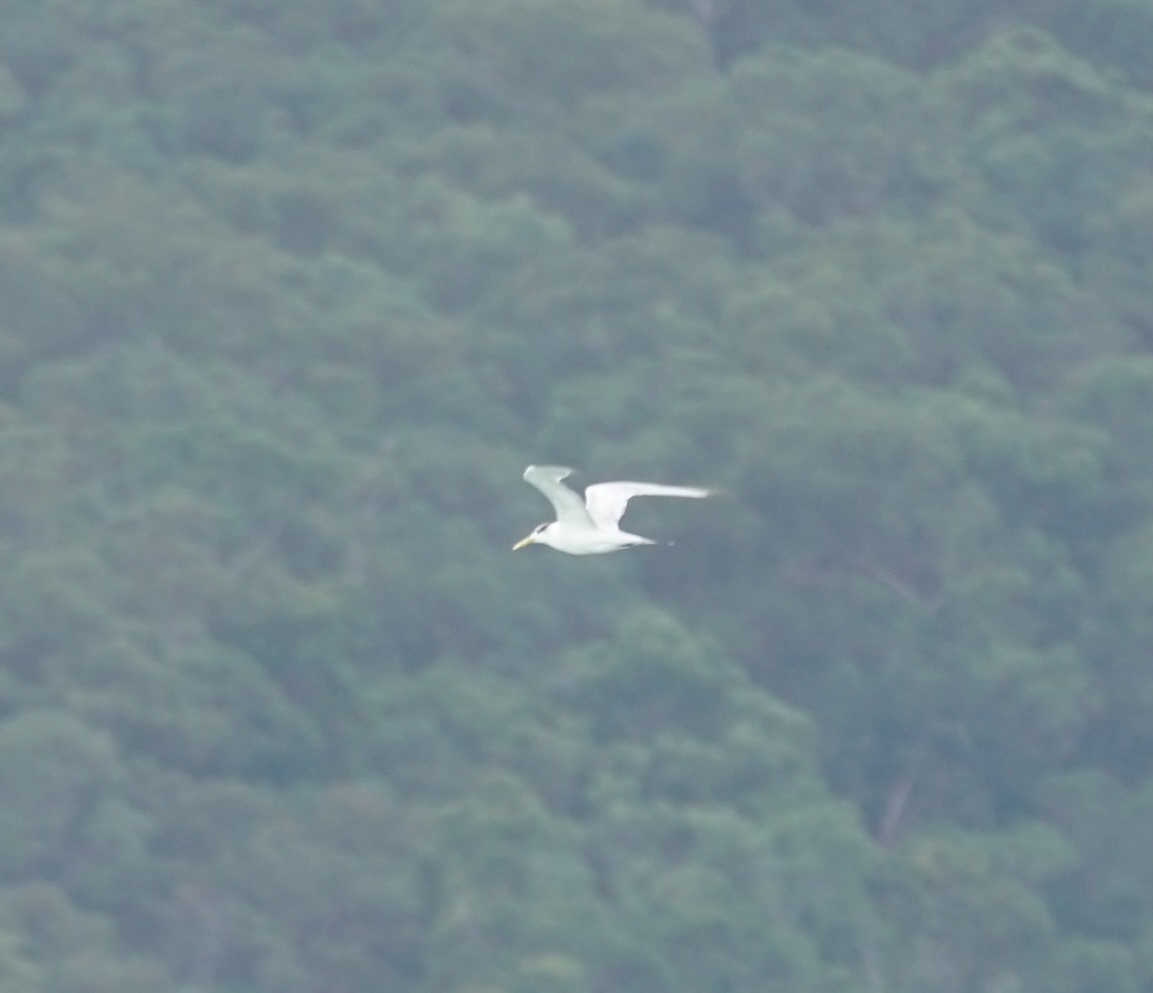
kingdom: Animalia
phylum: Chordata
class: Aves
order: Charadriiformes
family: Laridae
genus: Thalasseus
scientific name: Thalasseus bergii
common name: Greater crested tern
